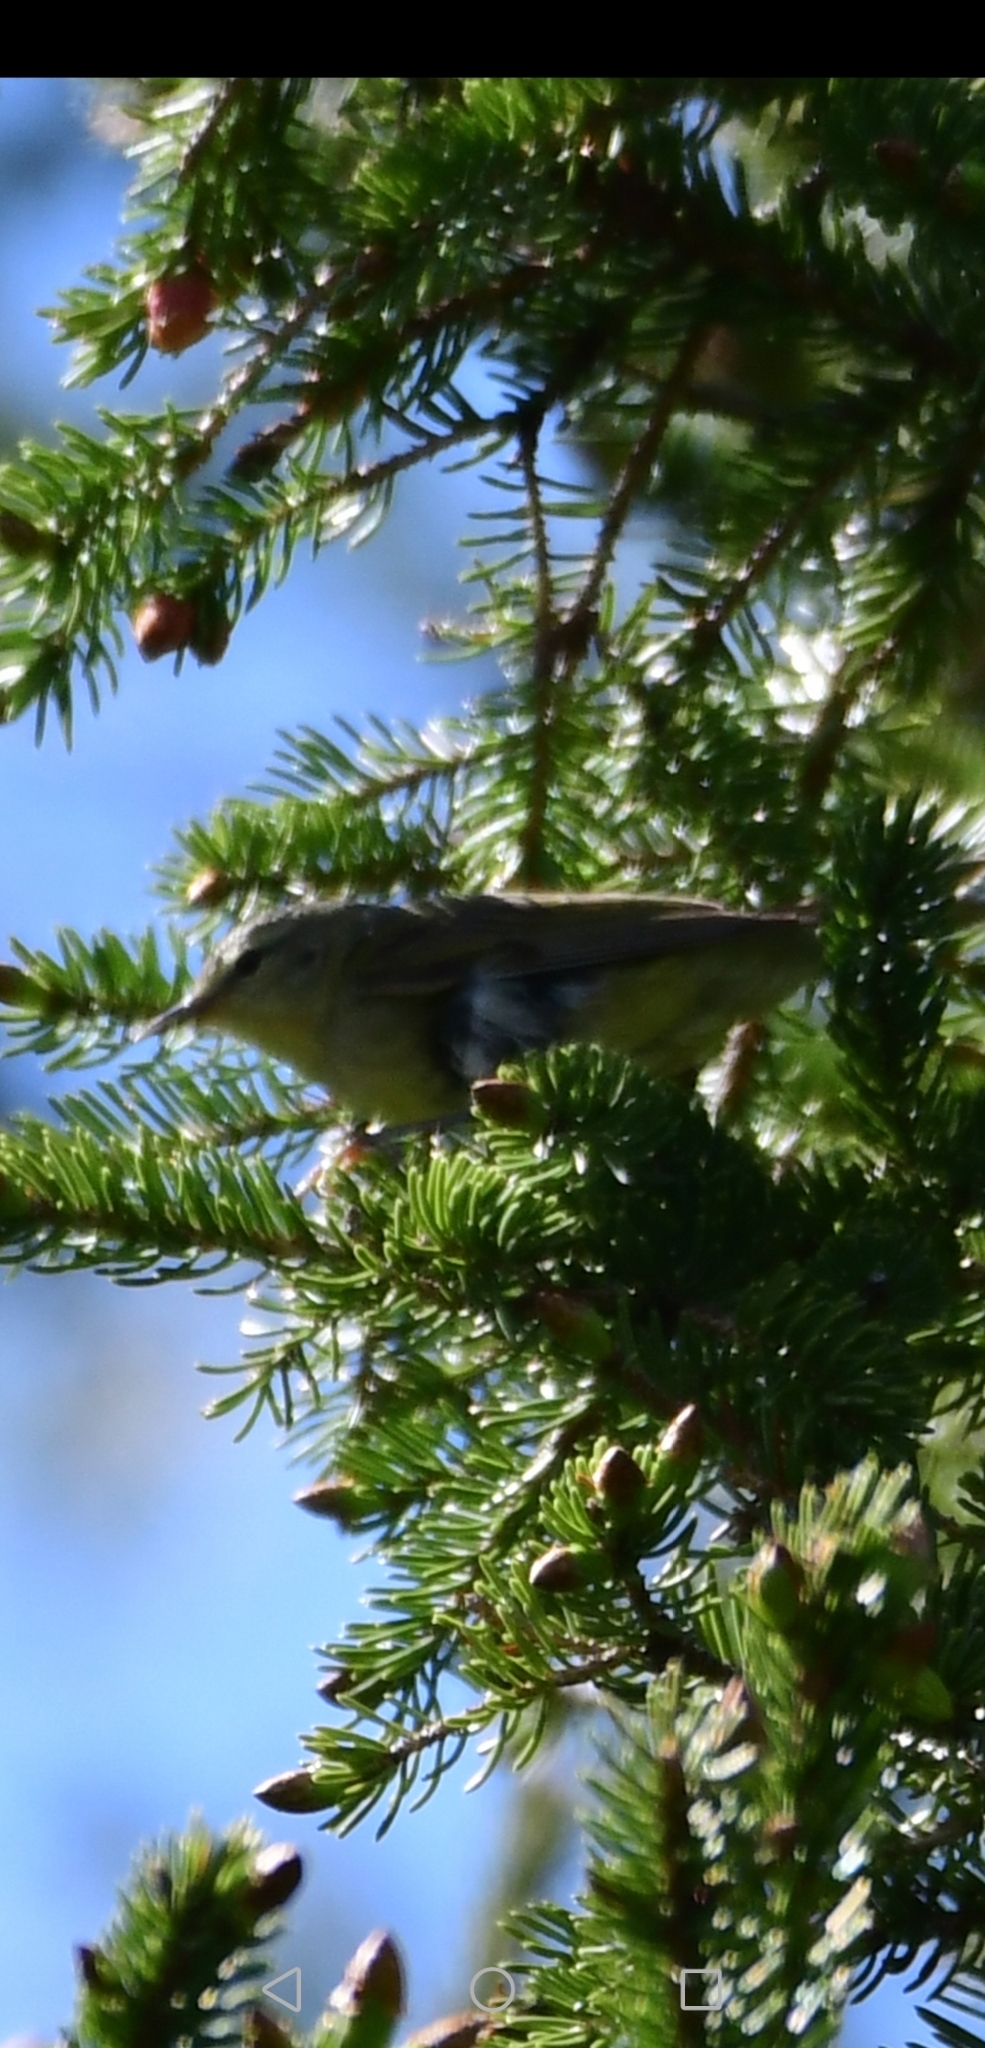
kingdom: Animalia
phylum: Chordata
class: Aves
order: Passeriformes
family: Parulidae
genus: Leiothlypis
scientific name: Leiothlypis peregrina
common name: Tennessee warbler
